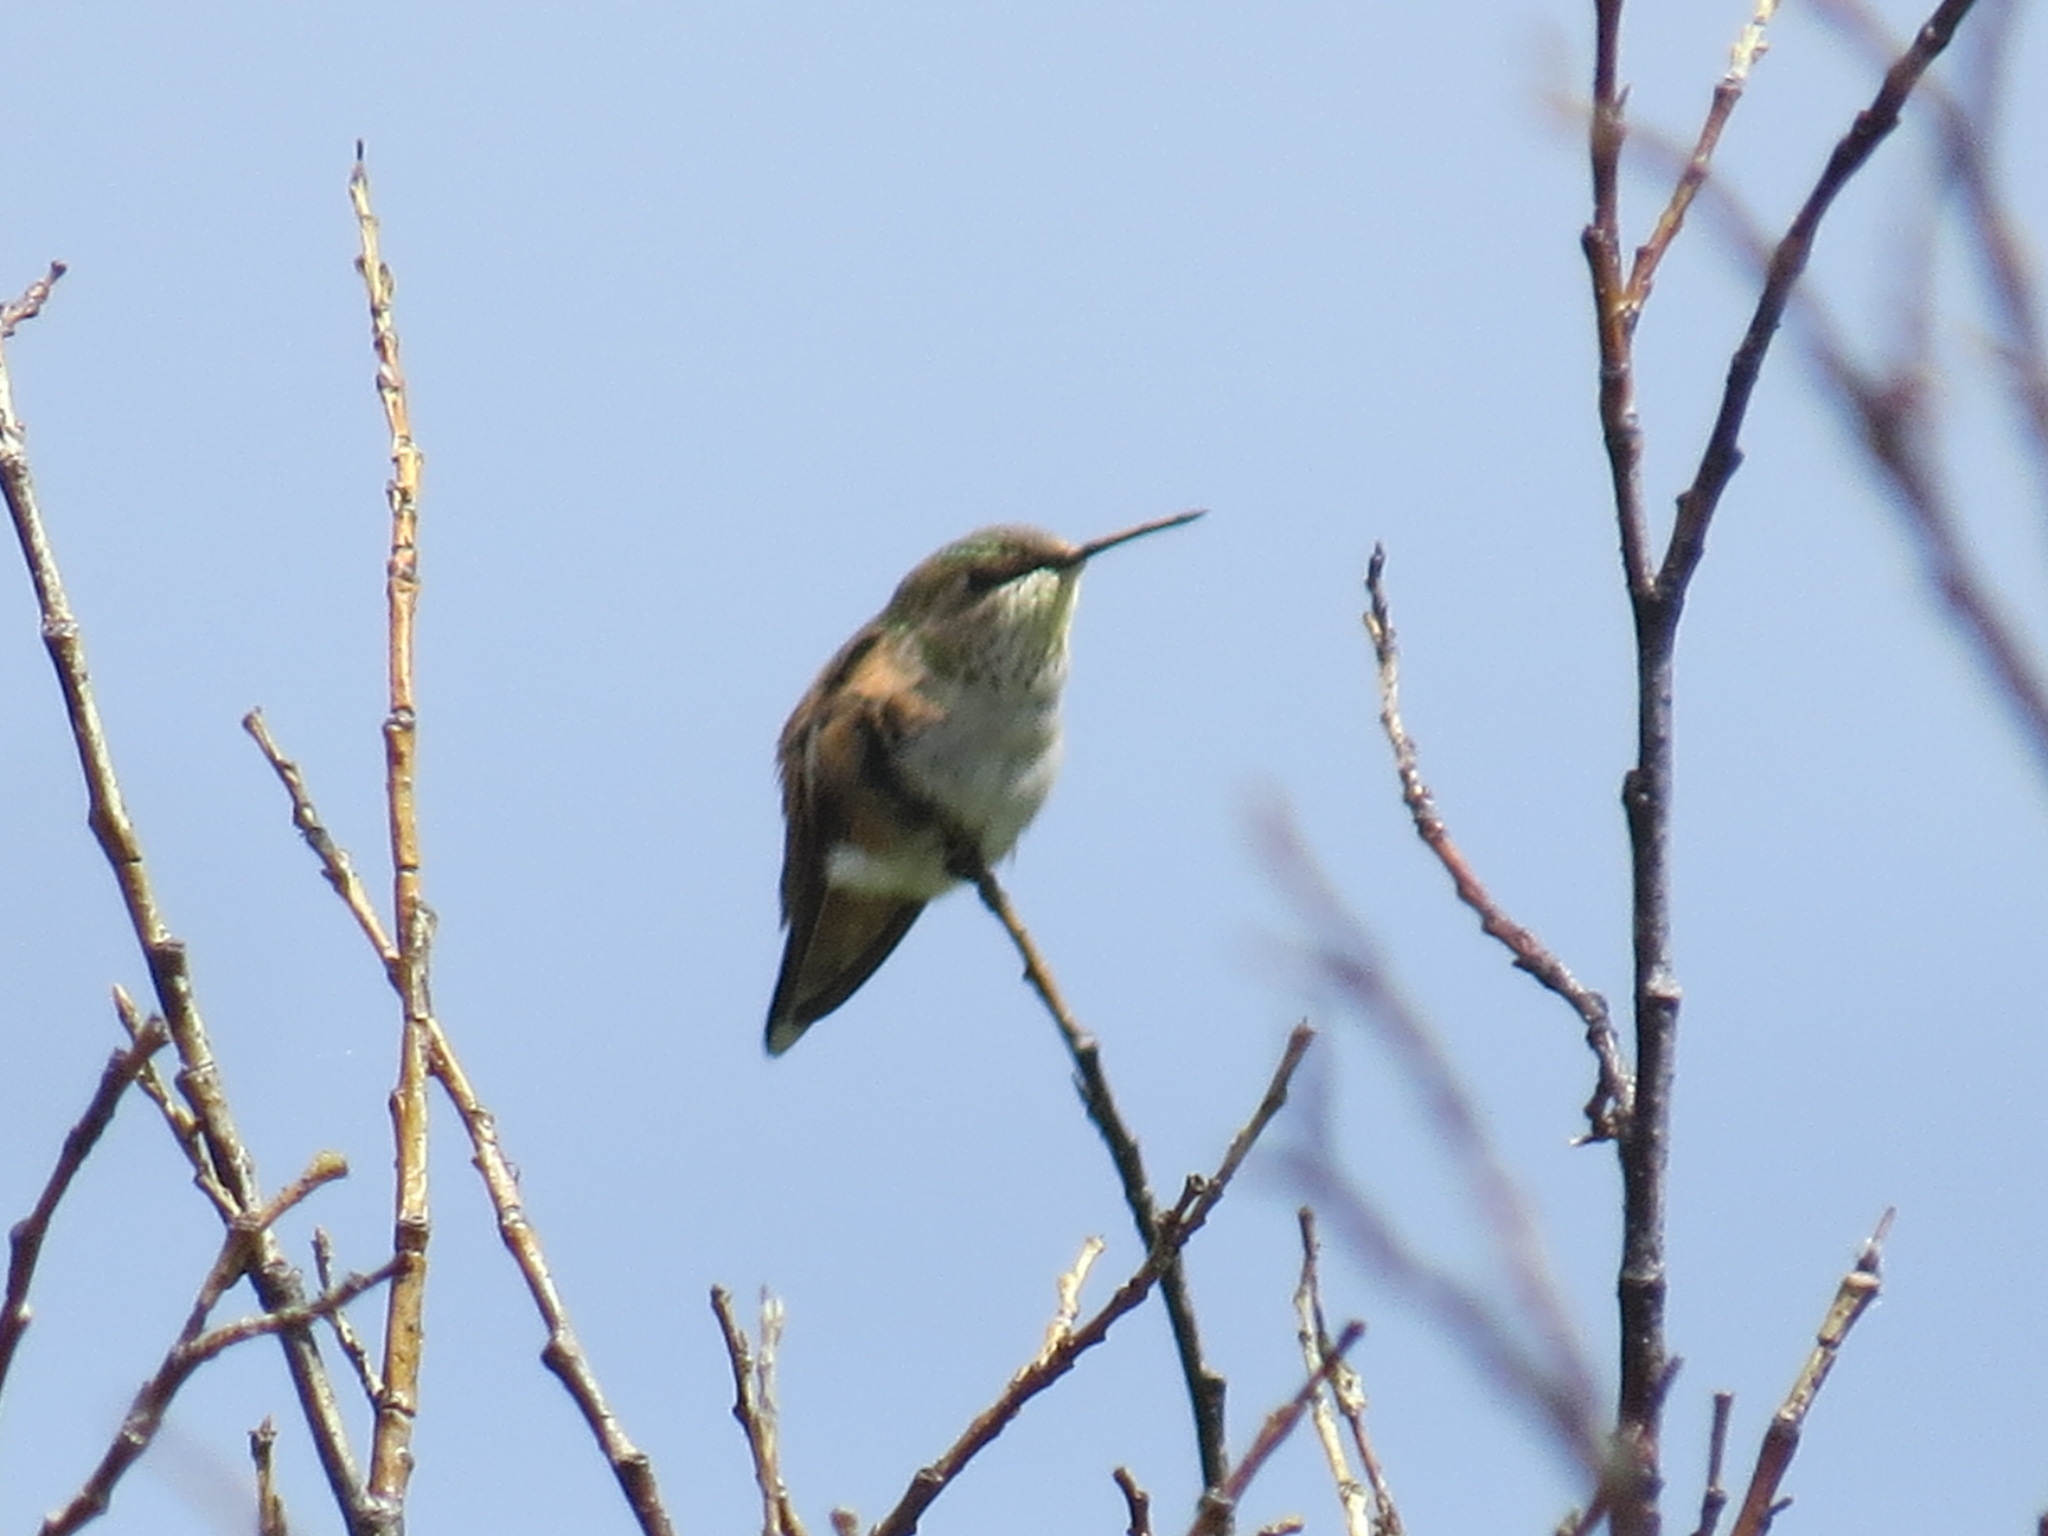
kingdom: Animalia
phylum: Chordata
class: Aves
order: Apodiformes
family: Trochilidae
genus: Selasphorus
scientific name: Selasphorus rufus
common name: Rufous hummingbird
